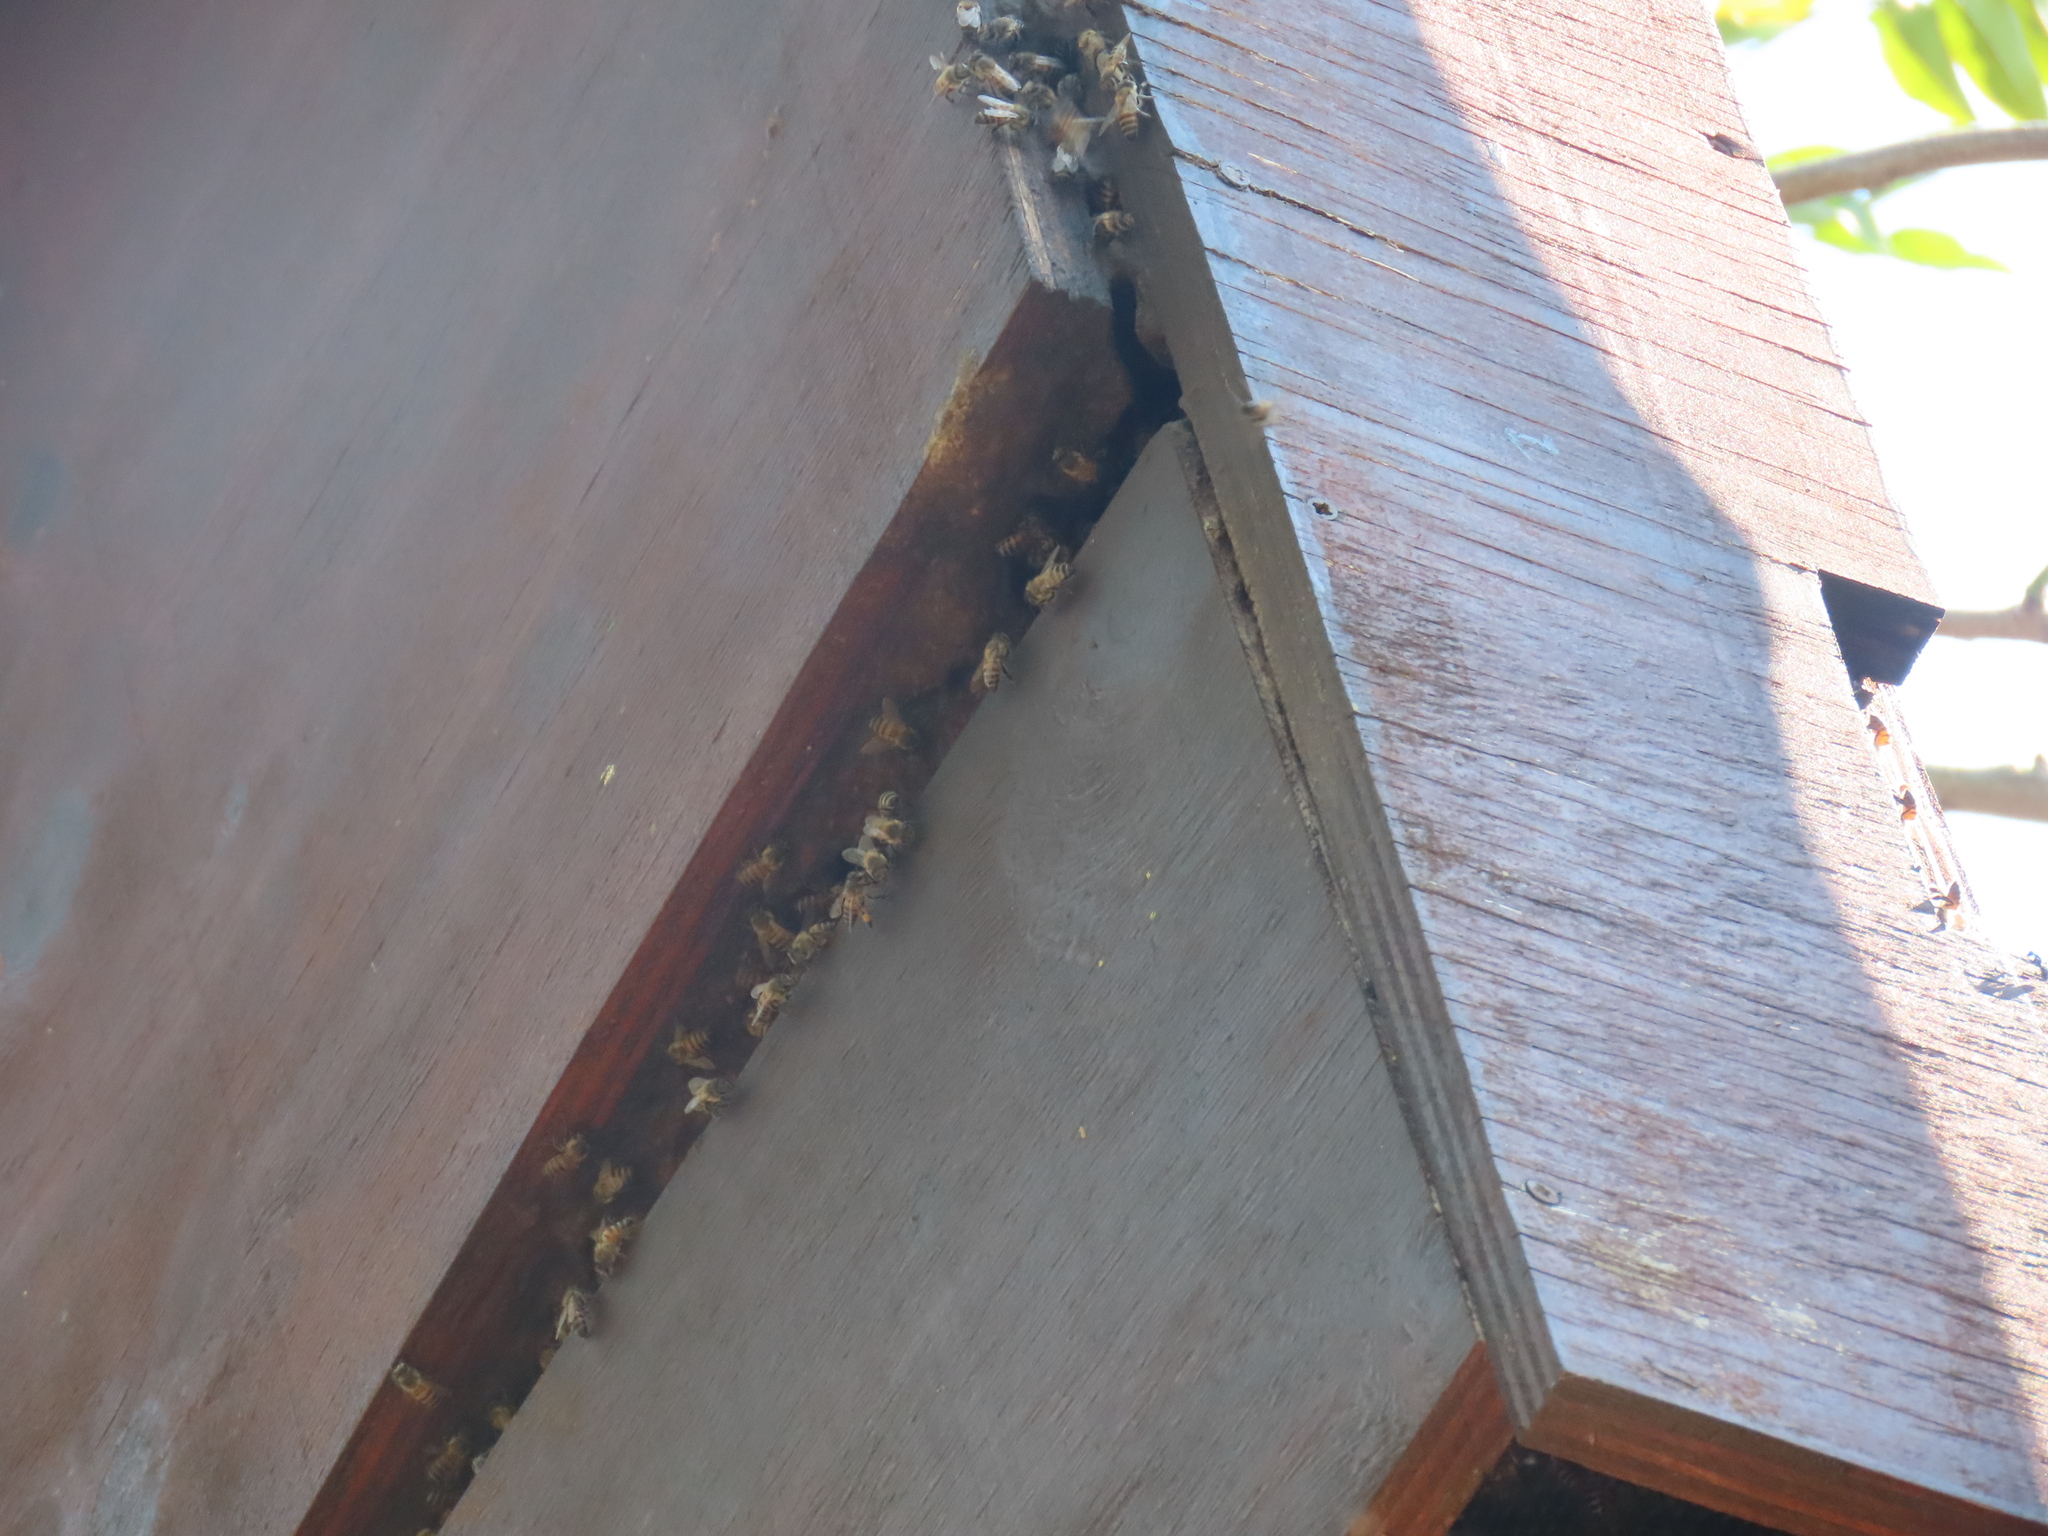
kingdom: Animalia
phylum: Arthropoda
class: Insecta
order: Hymenoptera
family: Apidae
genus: Apis
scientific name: Apis mellifera
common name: Honey bee
